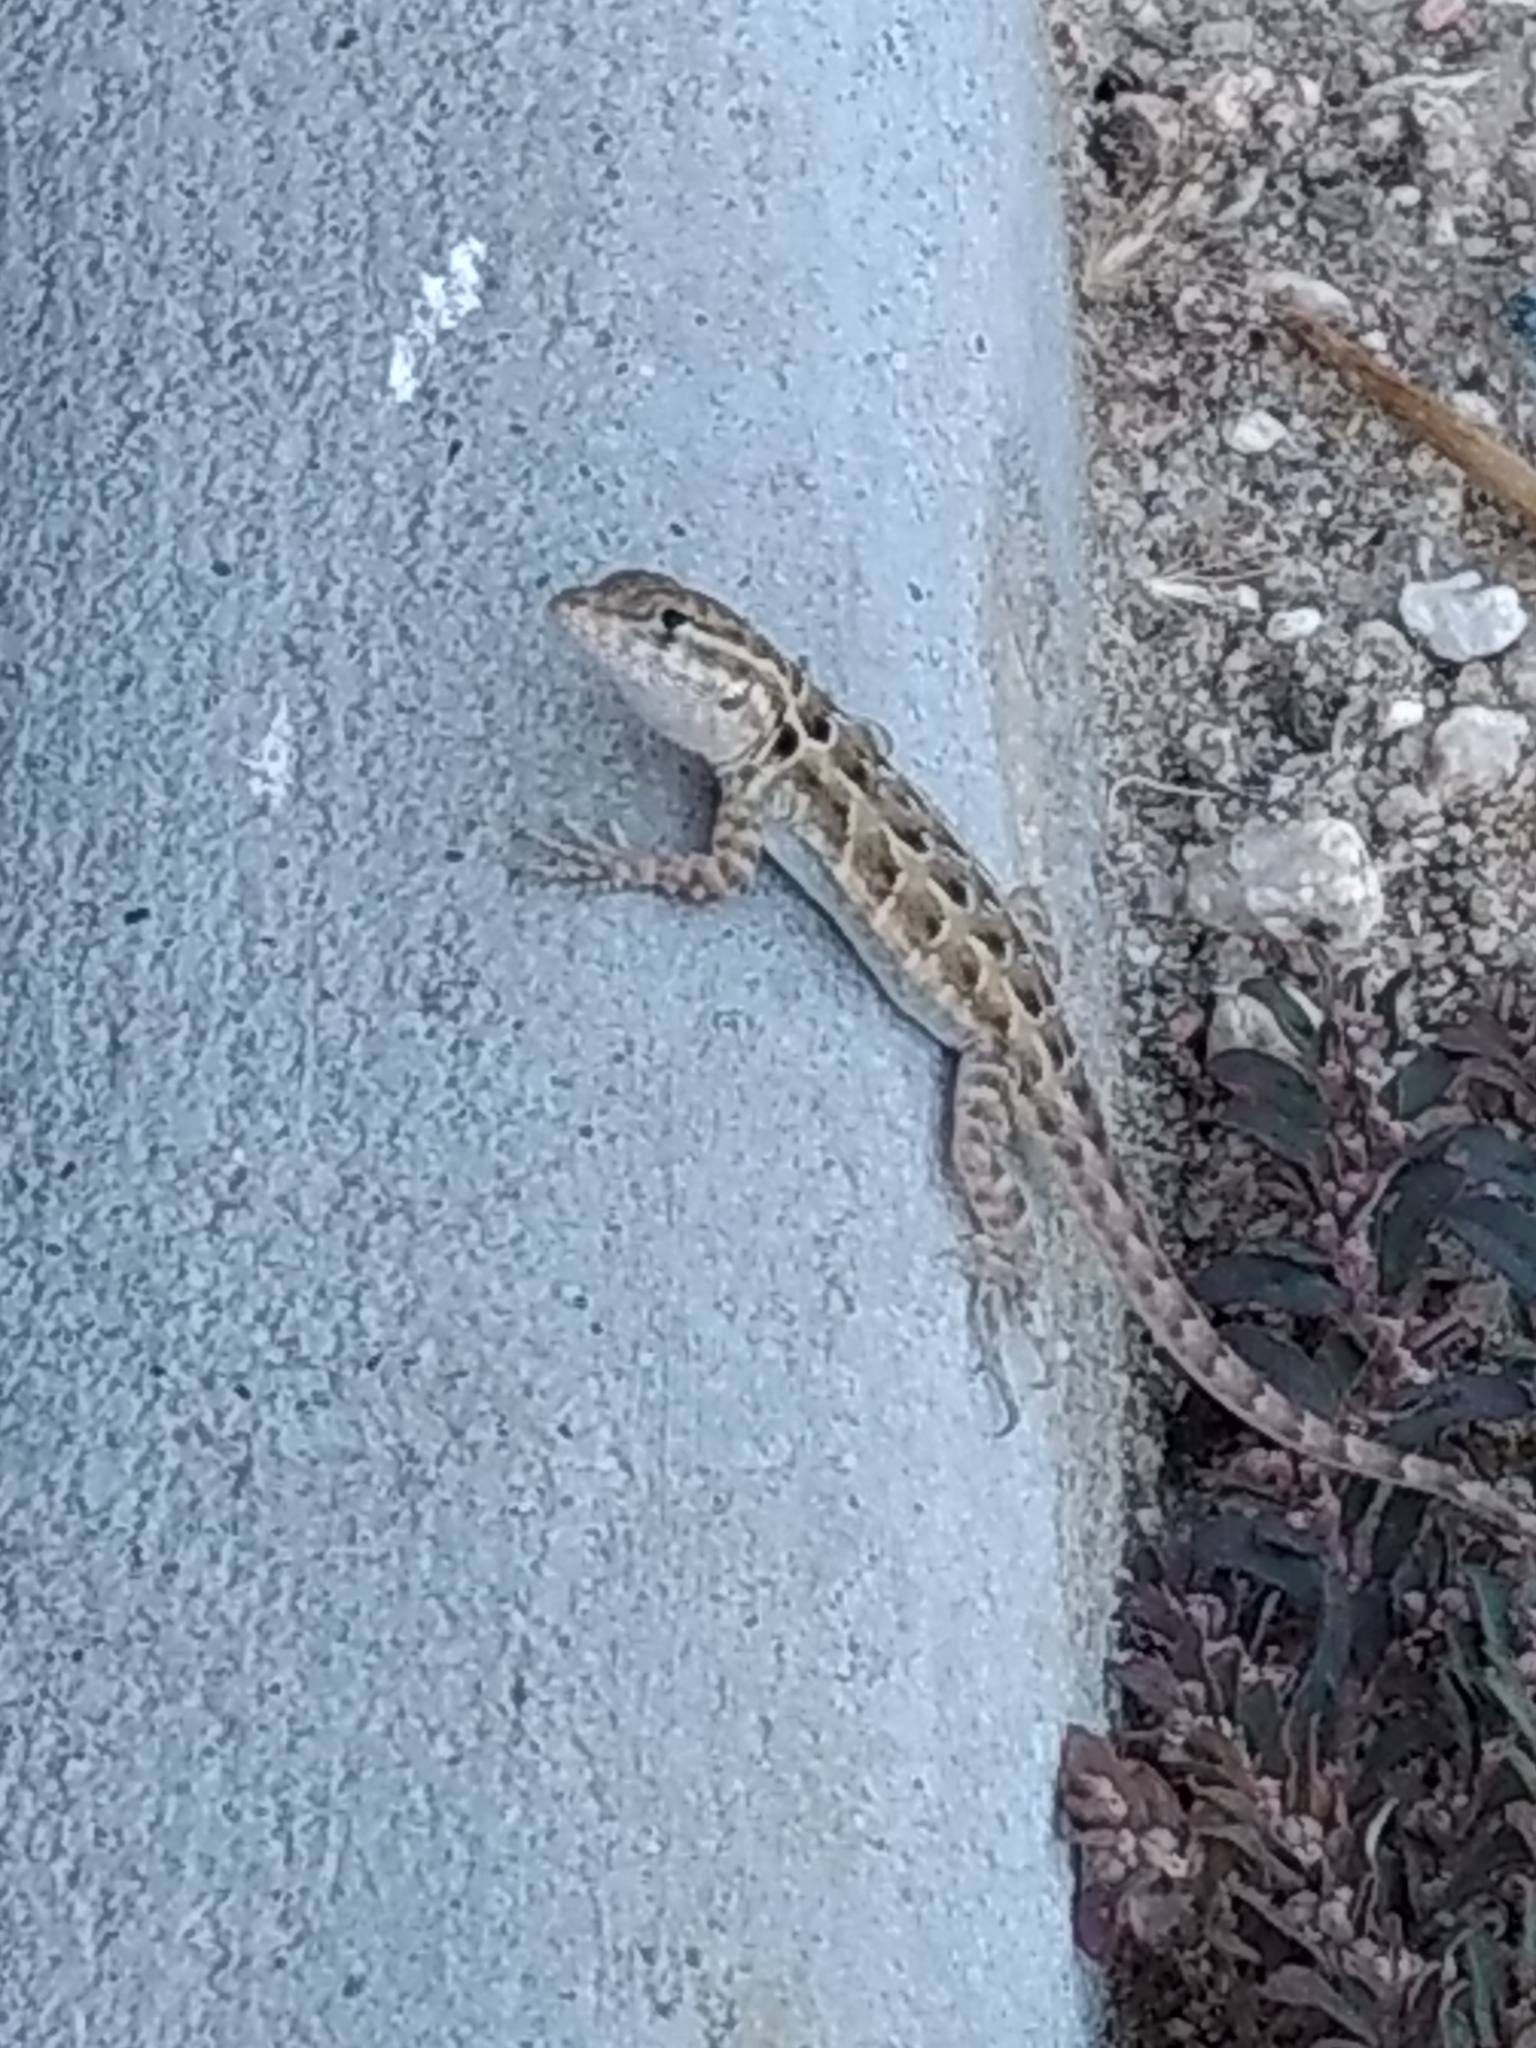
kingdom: Animalia
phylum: Chordata
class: Squamata
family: Phrynosomatidae
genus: Uta
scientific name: Uta stansburiana
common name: Side-blotched lizard
